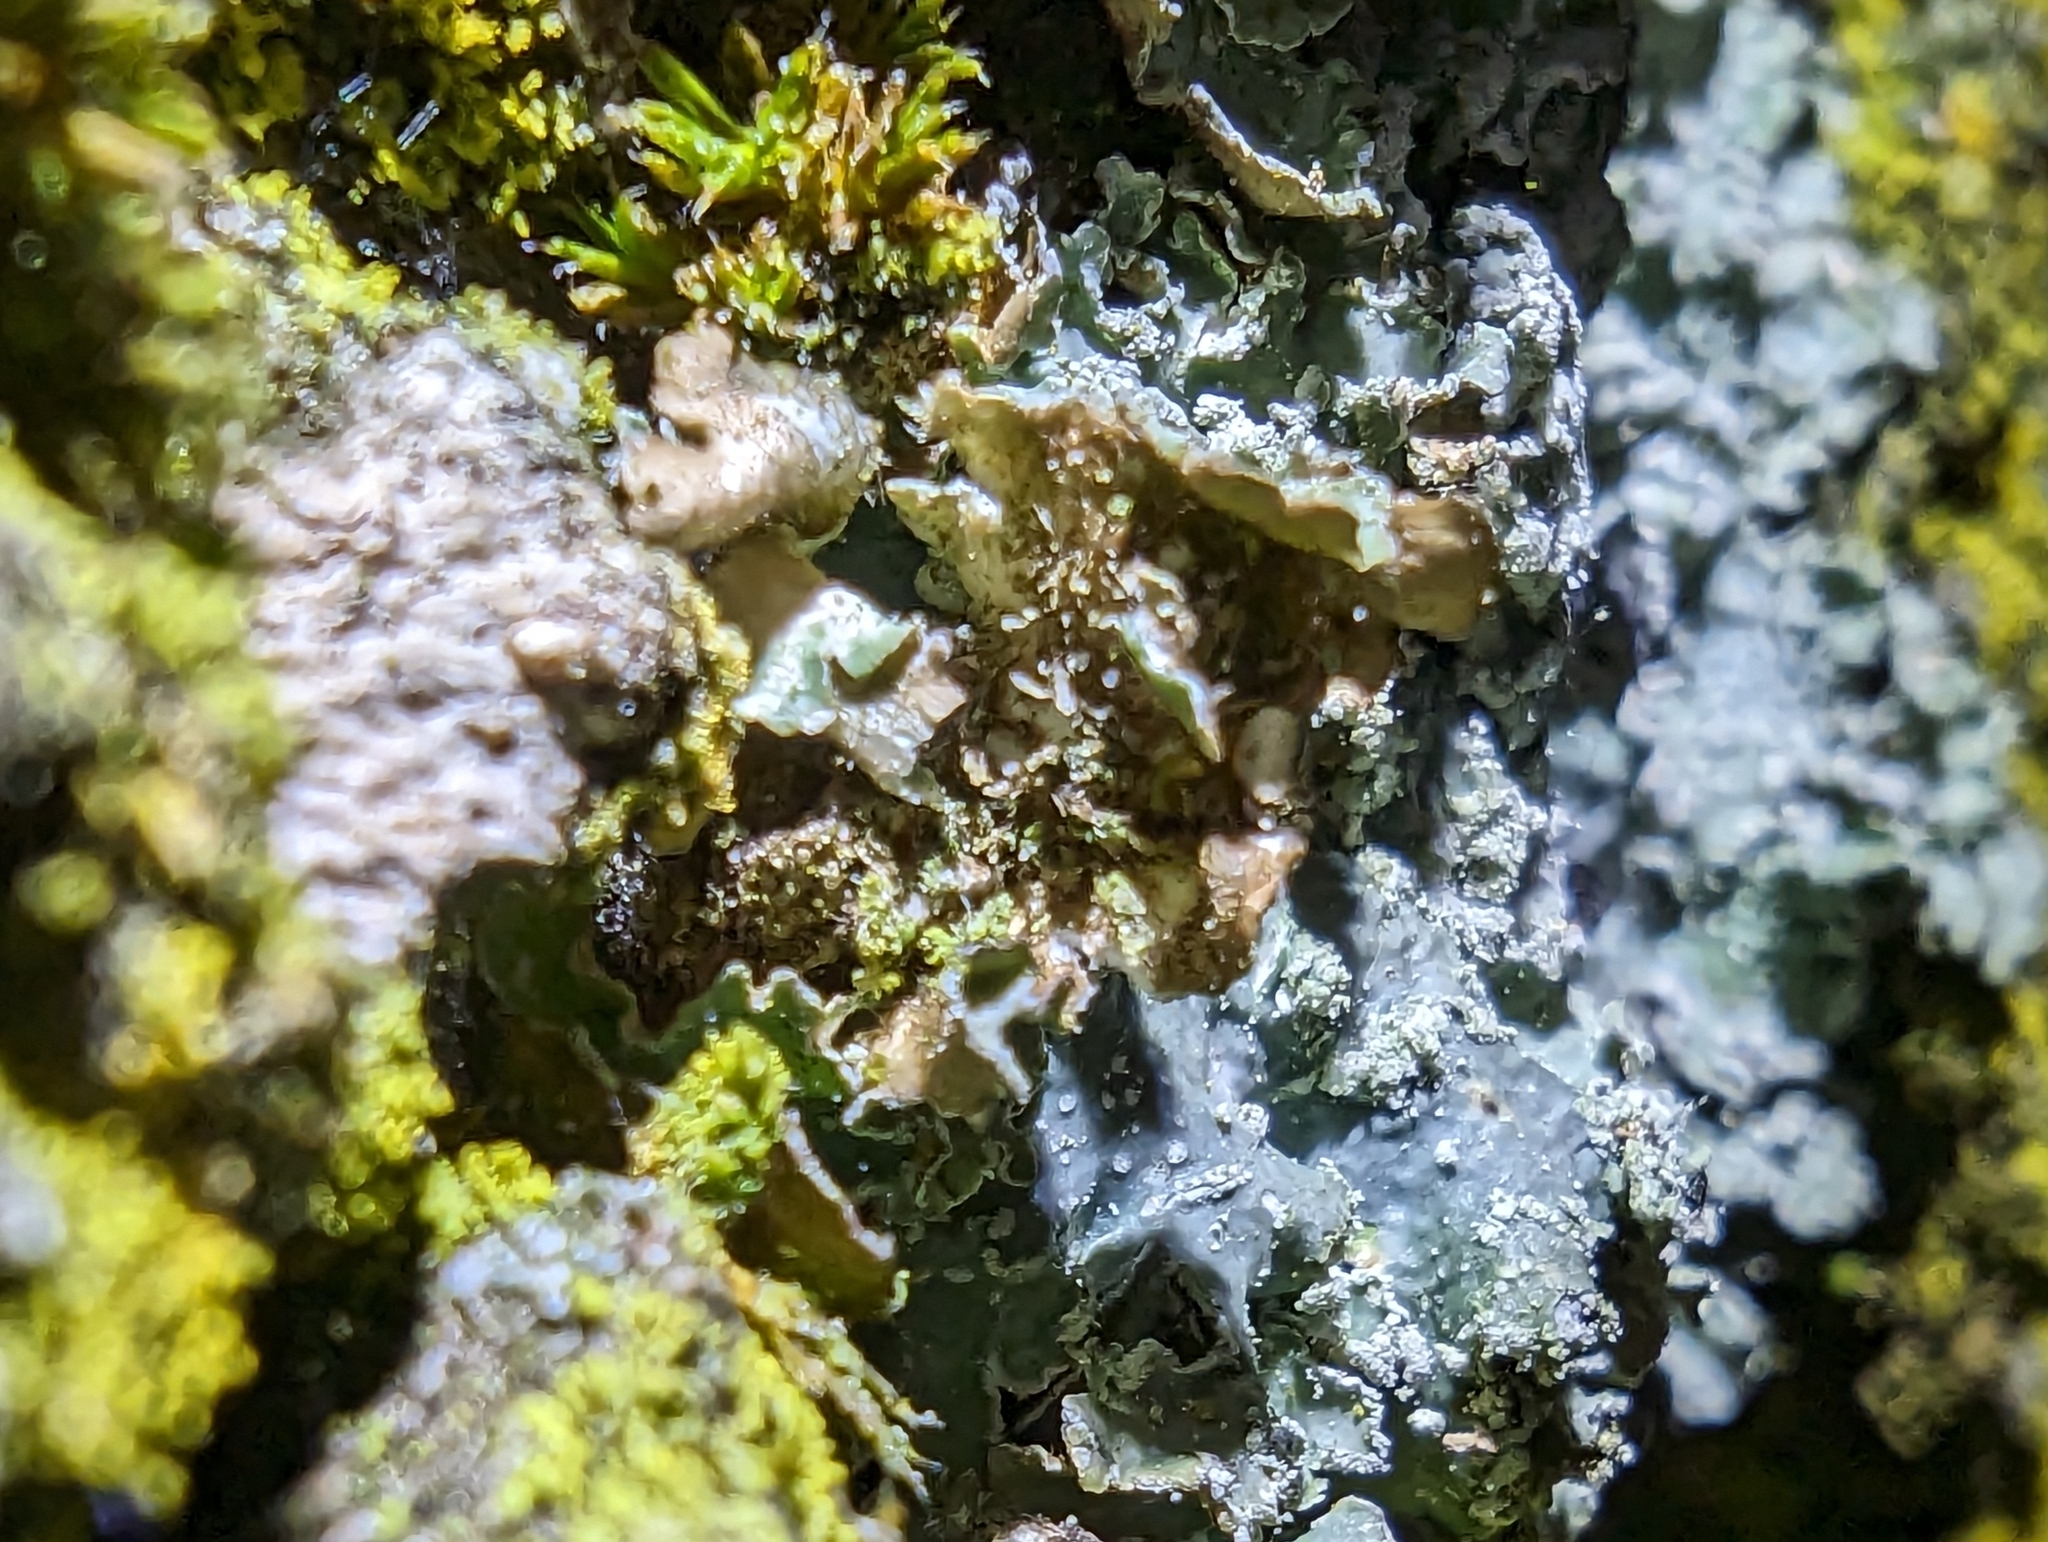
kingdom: Fungi
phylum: Ascomycota
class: Lecanoromycetes
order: Lecanorales
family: Parmeliaceae
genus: Punctelia
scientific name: Punctelia jeckeri
